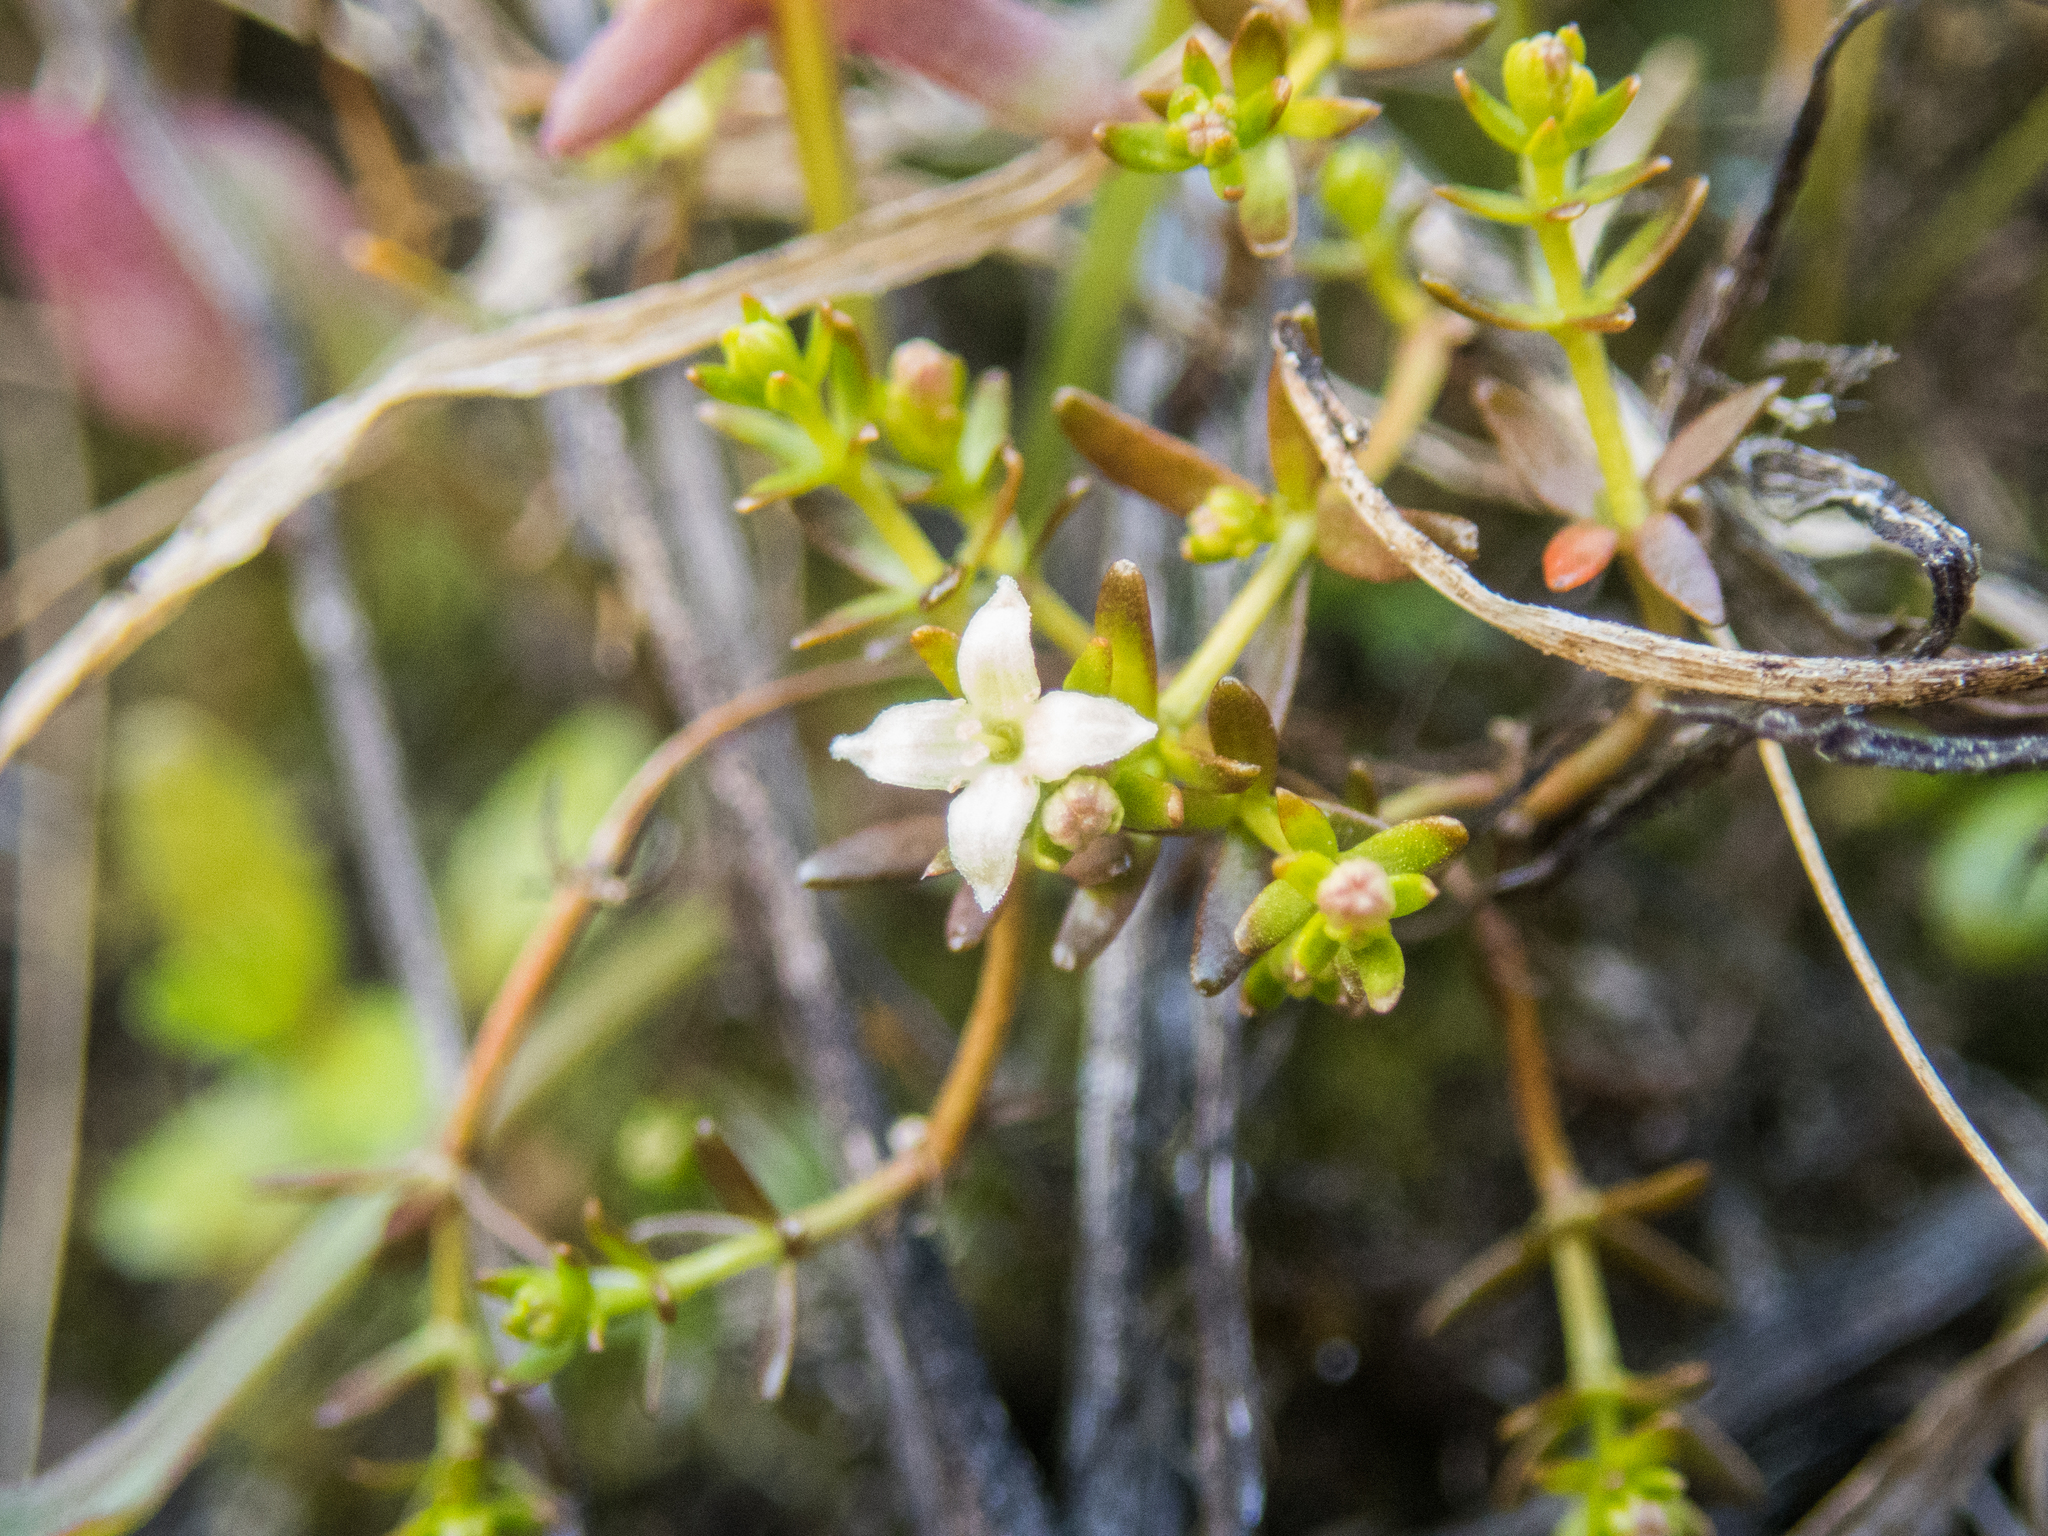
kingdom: Plantae
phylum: Tracheophyta
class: Magnoliopsida
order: Gentianales
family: Rubiaceae
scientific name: Rubiaceae
